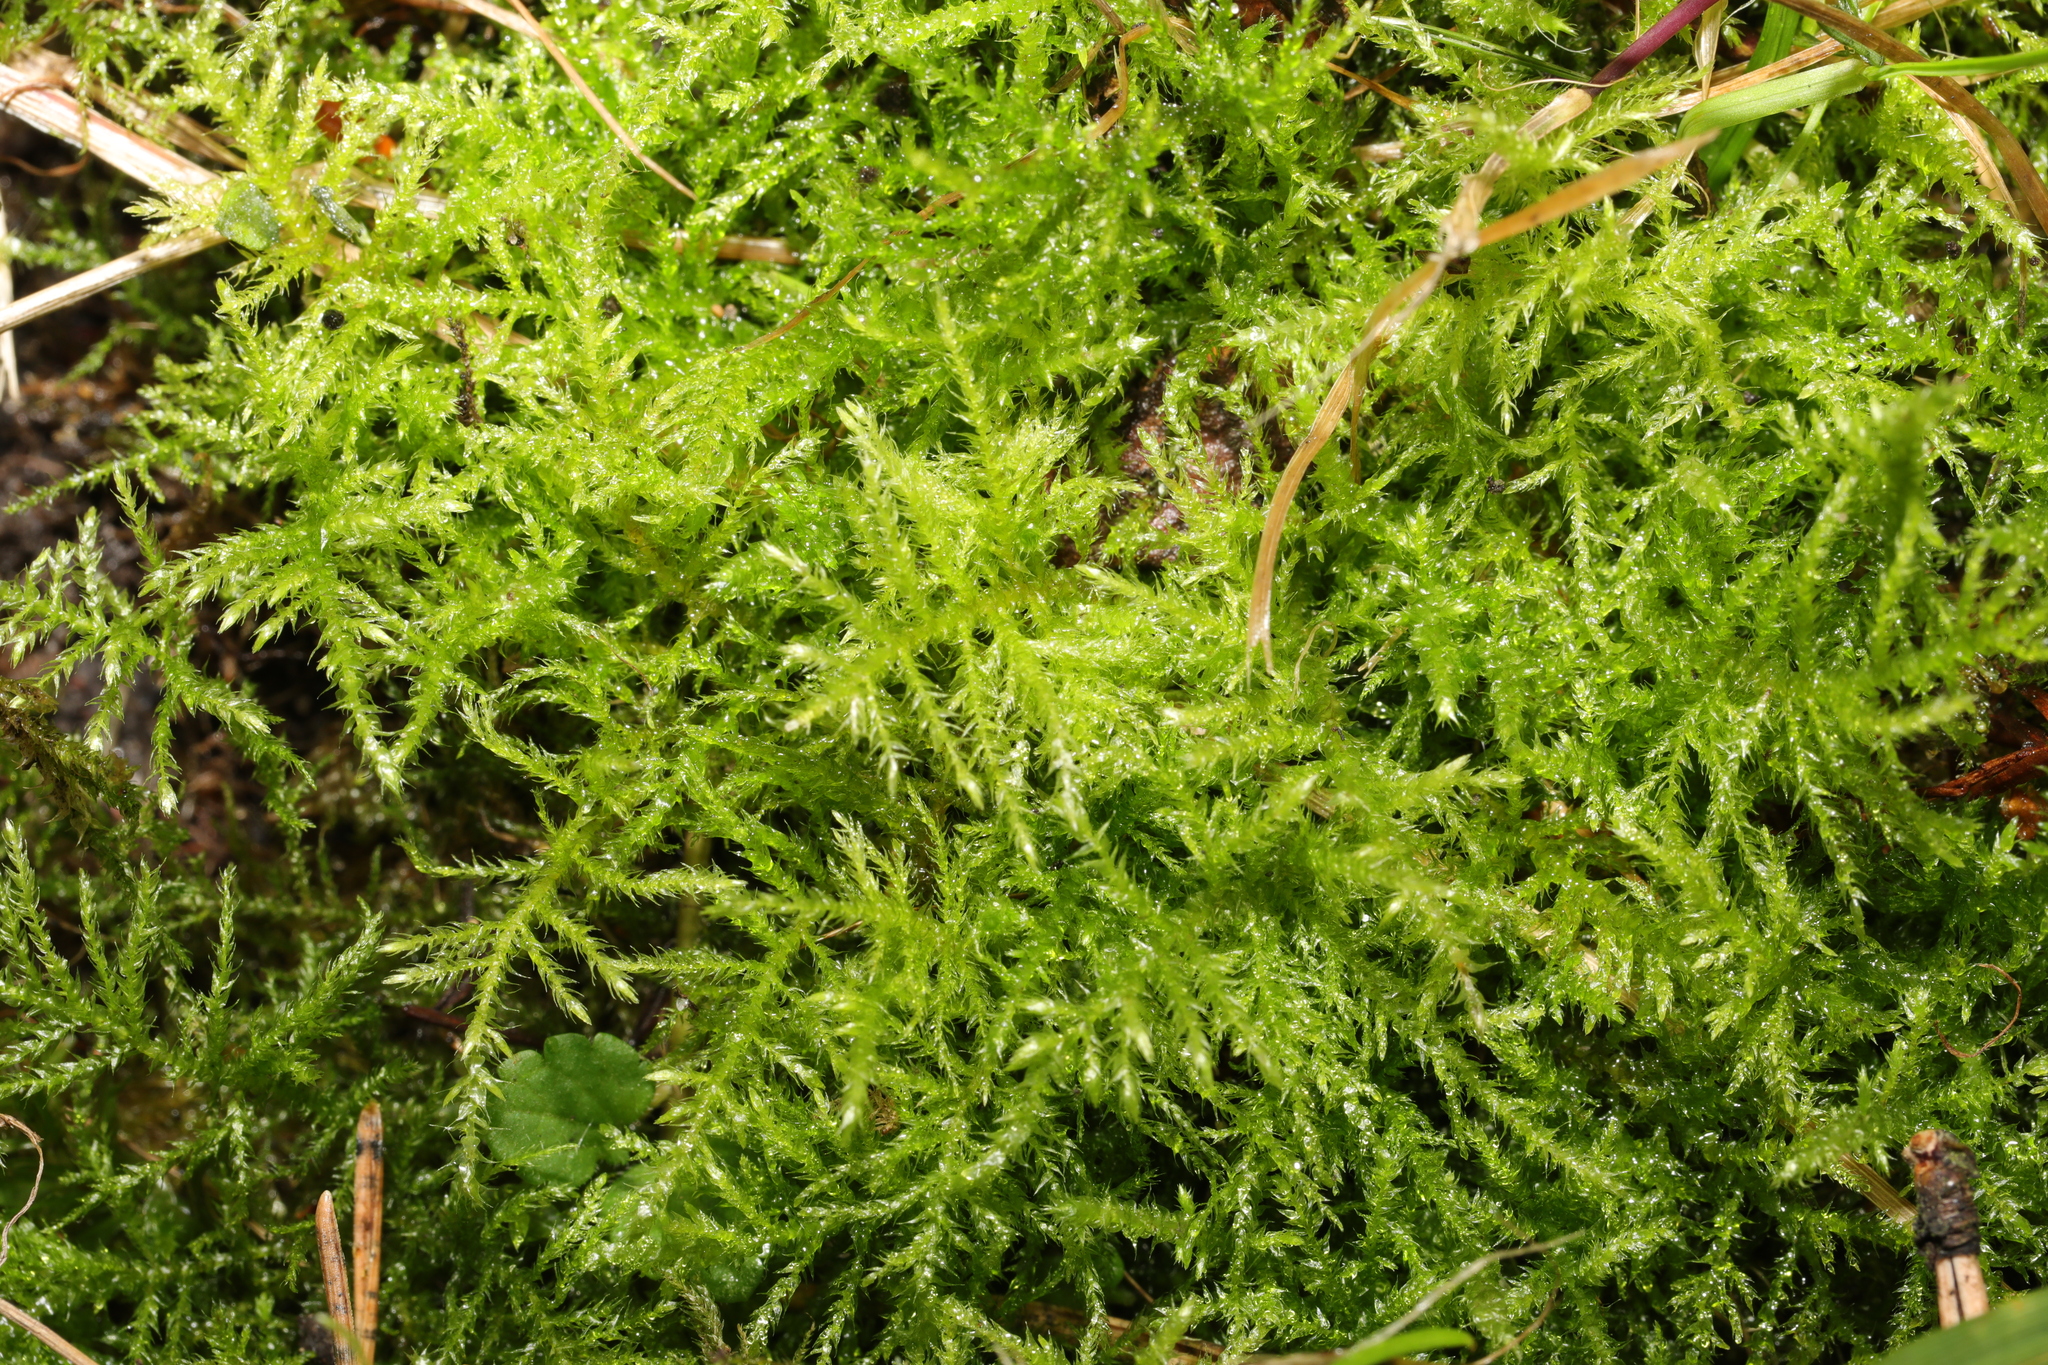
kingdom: Plantae
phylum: Bryophyta
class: Bryopsida
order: Hypnales
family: Brachytheciaceae
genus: Kindbergia
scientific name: Kindbergia praelonga
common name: Slender beaked moss
